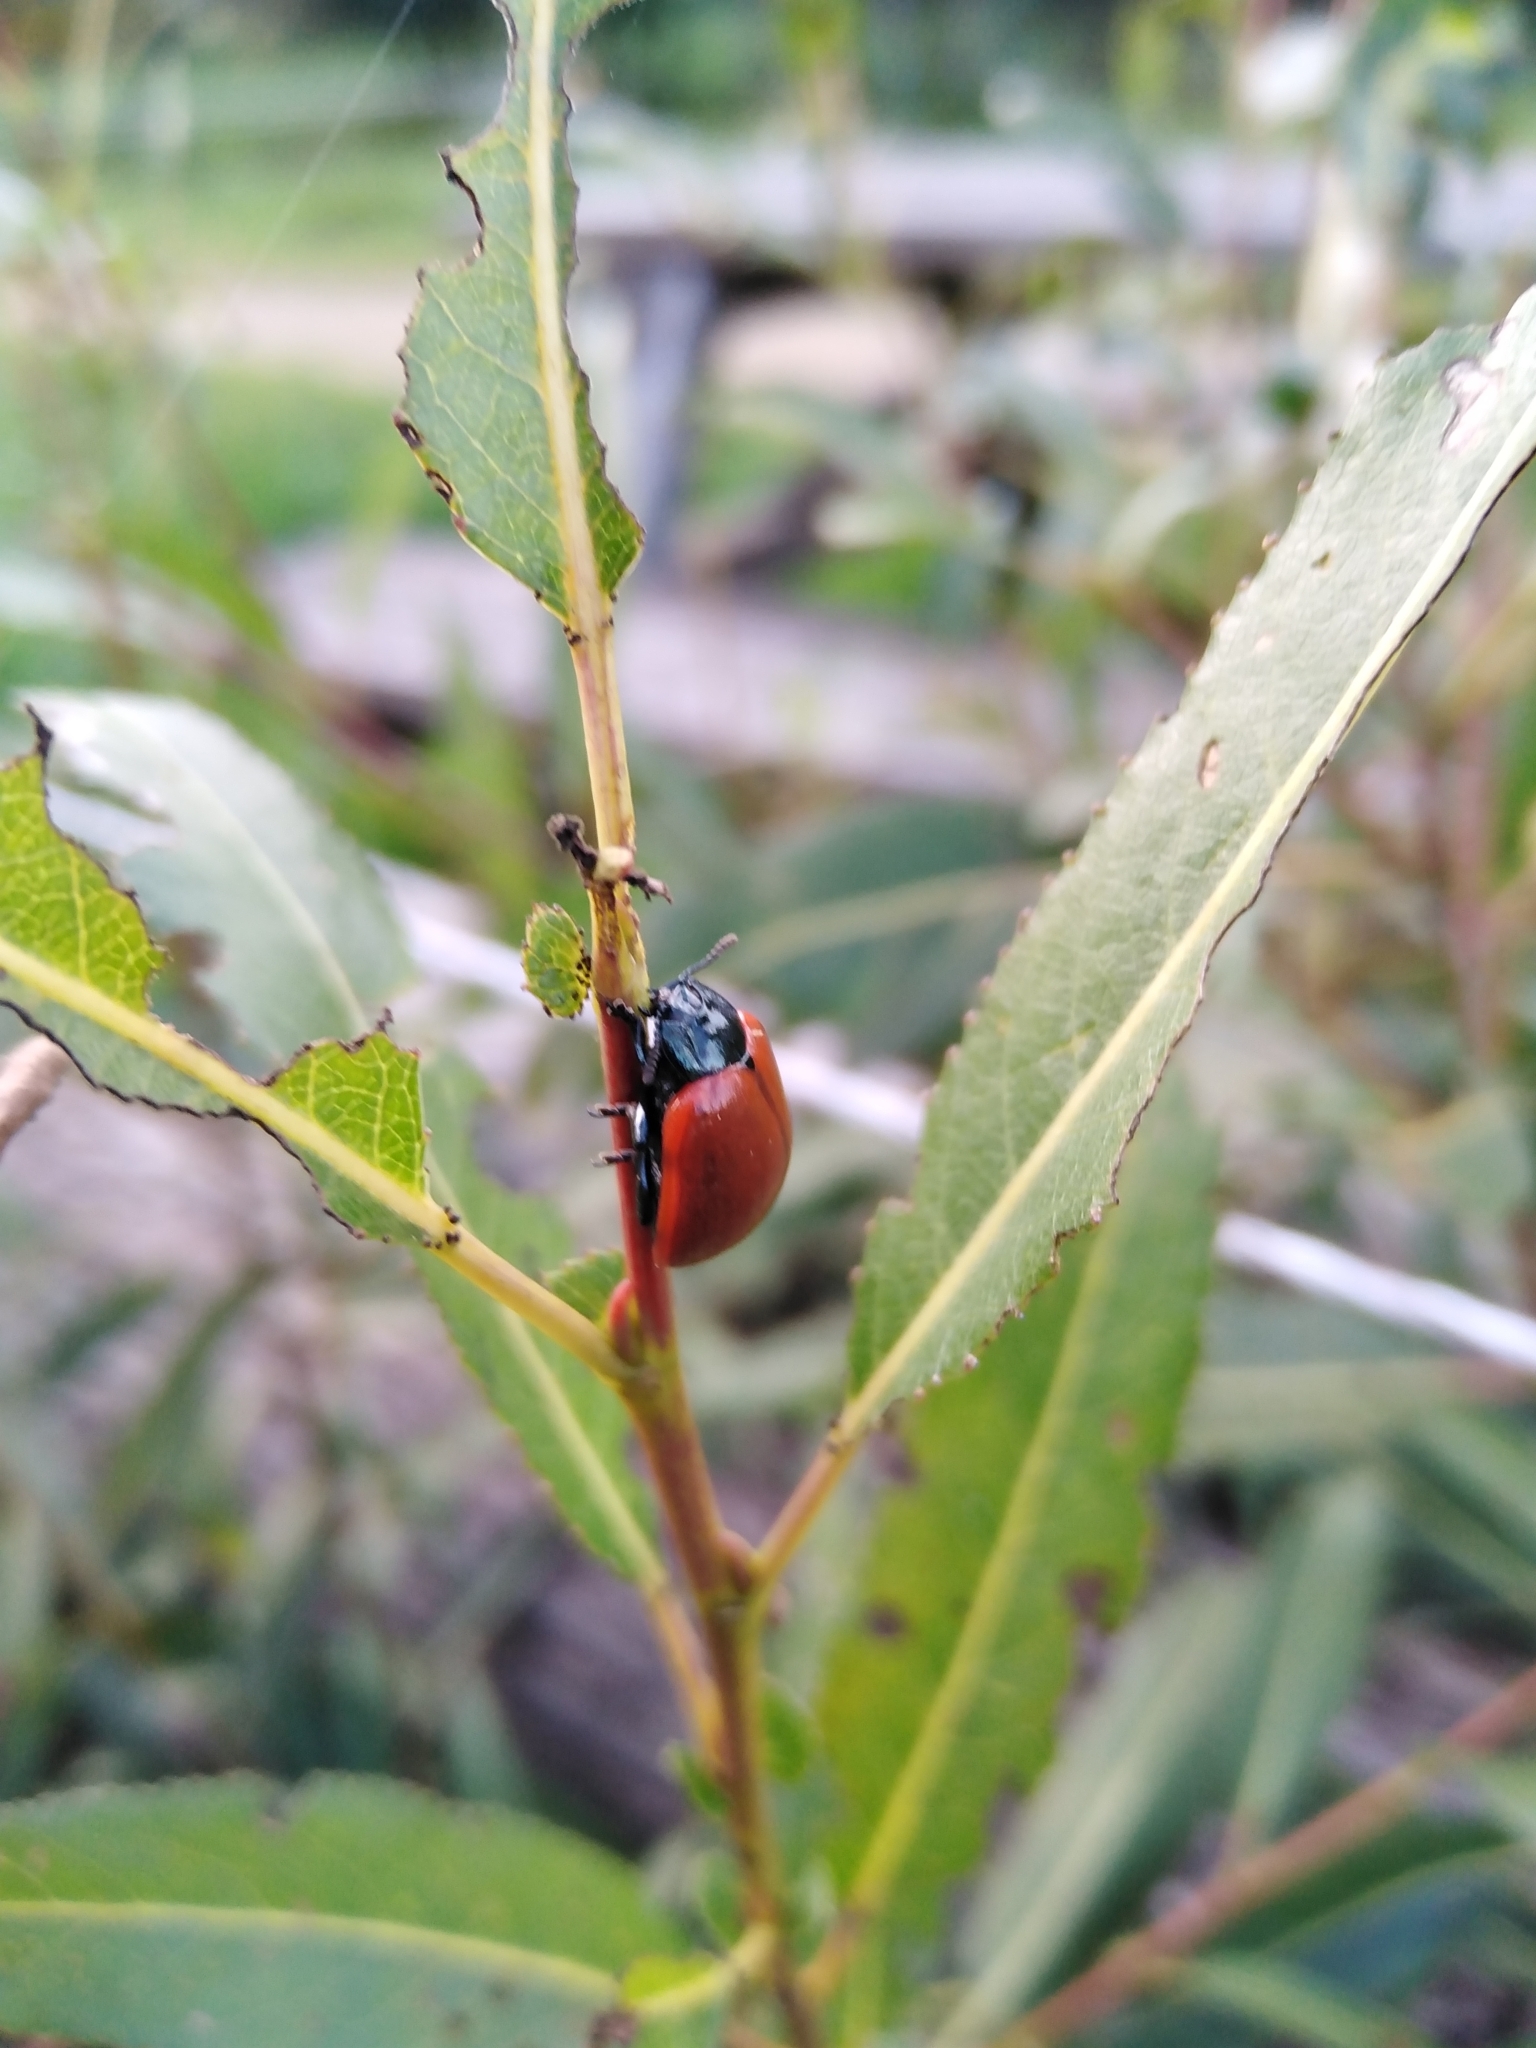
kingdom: Animalia
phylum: Arthropoda
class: Insecta
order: Coleoptera
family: Chrysomelidae
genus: Chrysomela
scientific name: Chrysomela populi
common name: Red poplar leaf beetle
